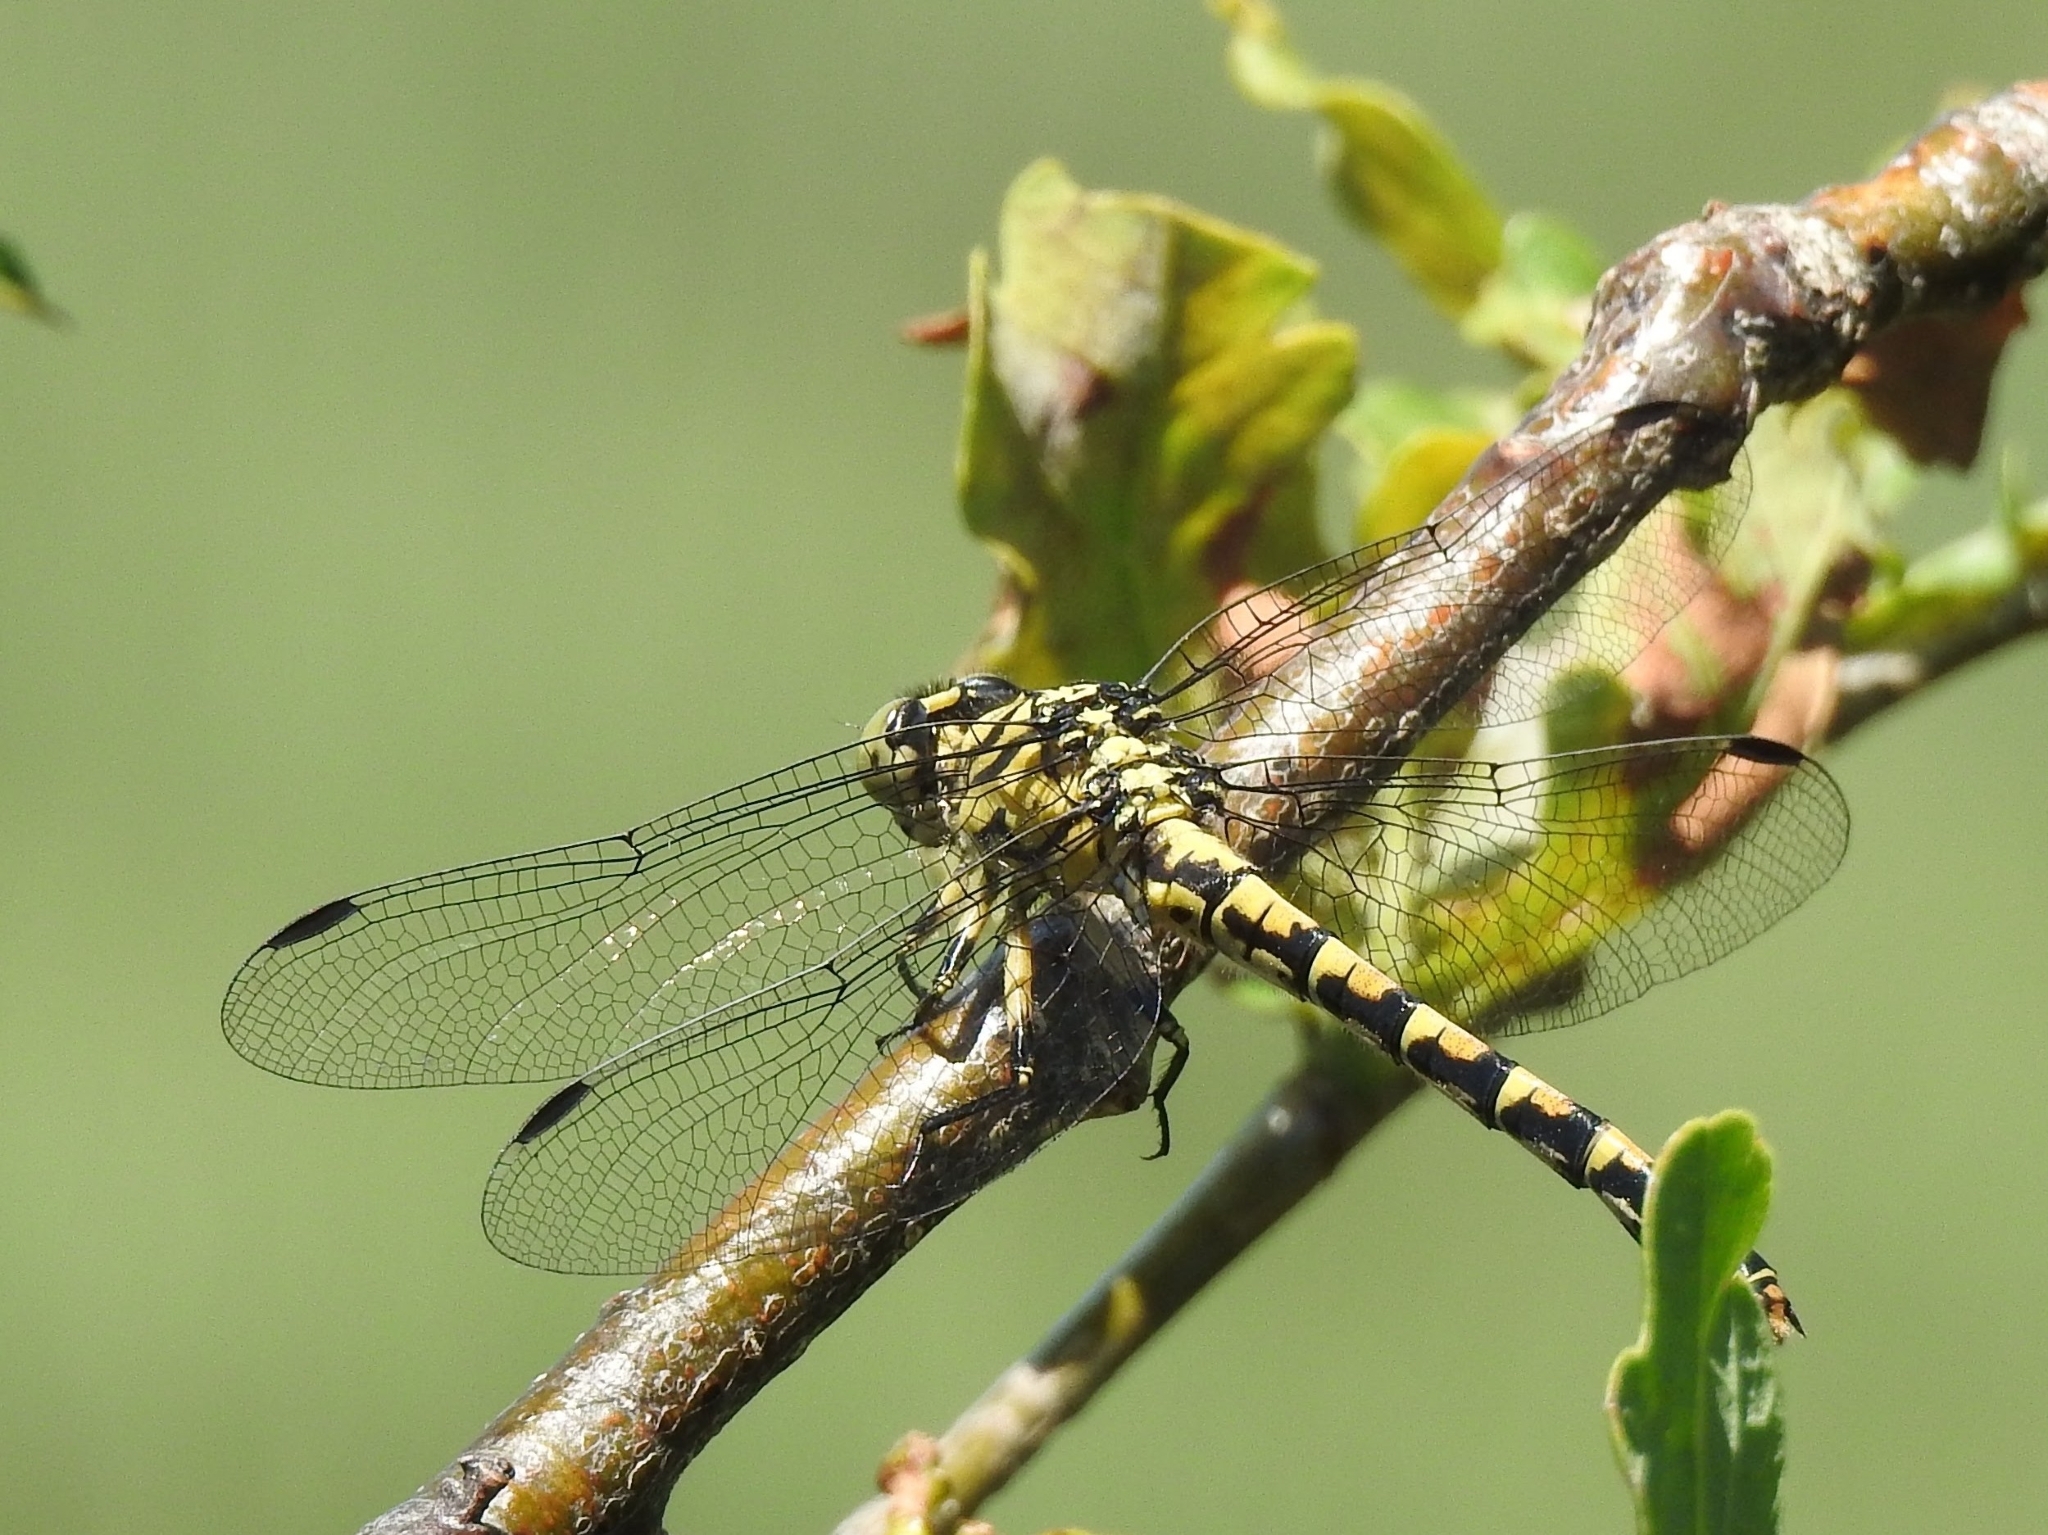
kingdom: Animalia
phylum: Arthropoda
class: Insecta
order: Odonata
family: Gomphidae
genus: Onychogomphus
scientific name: Onychogomphus forcipatus
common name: Small pincertail
